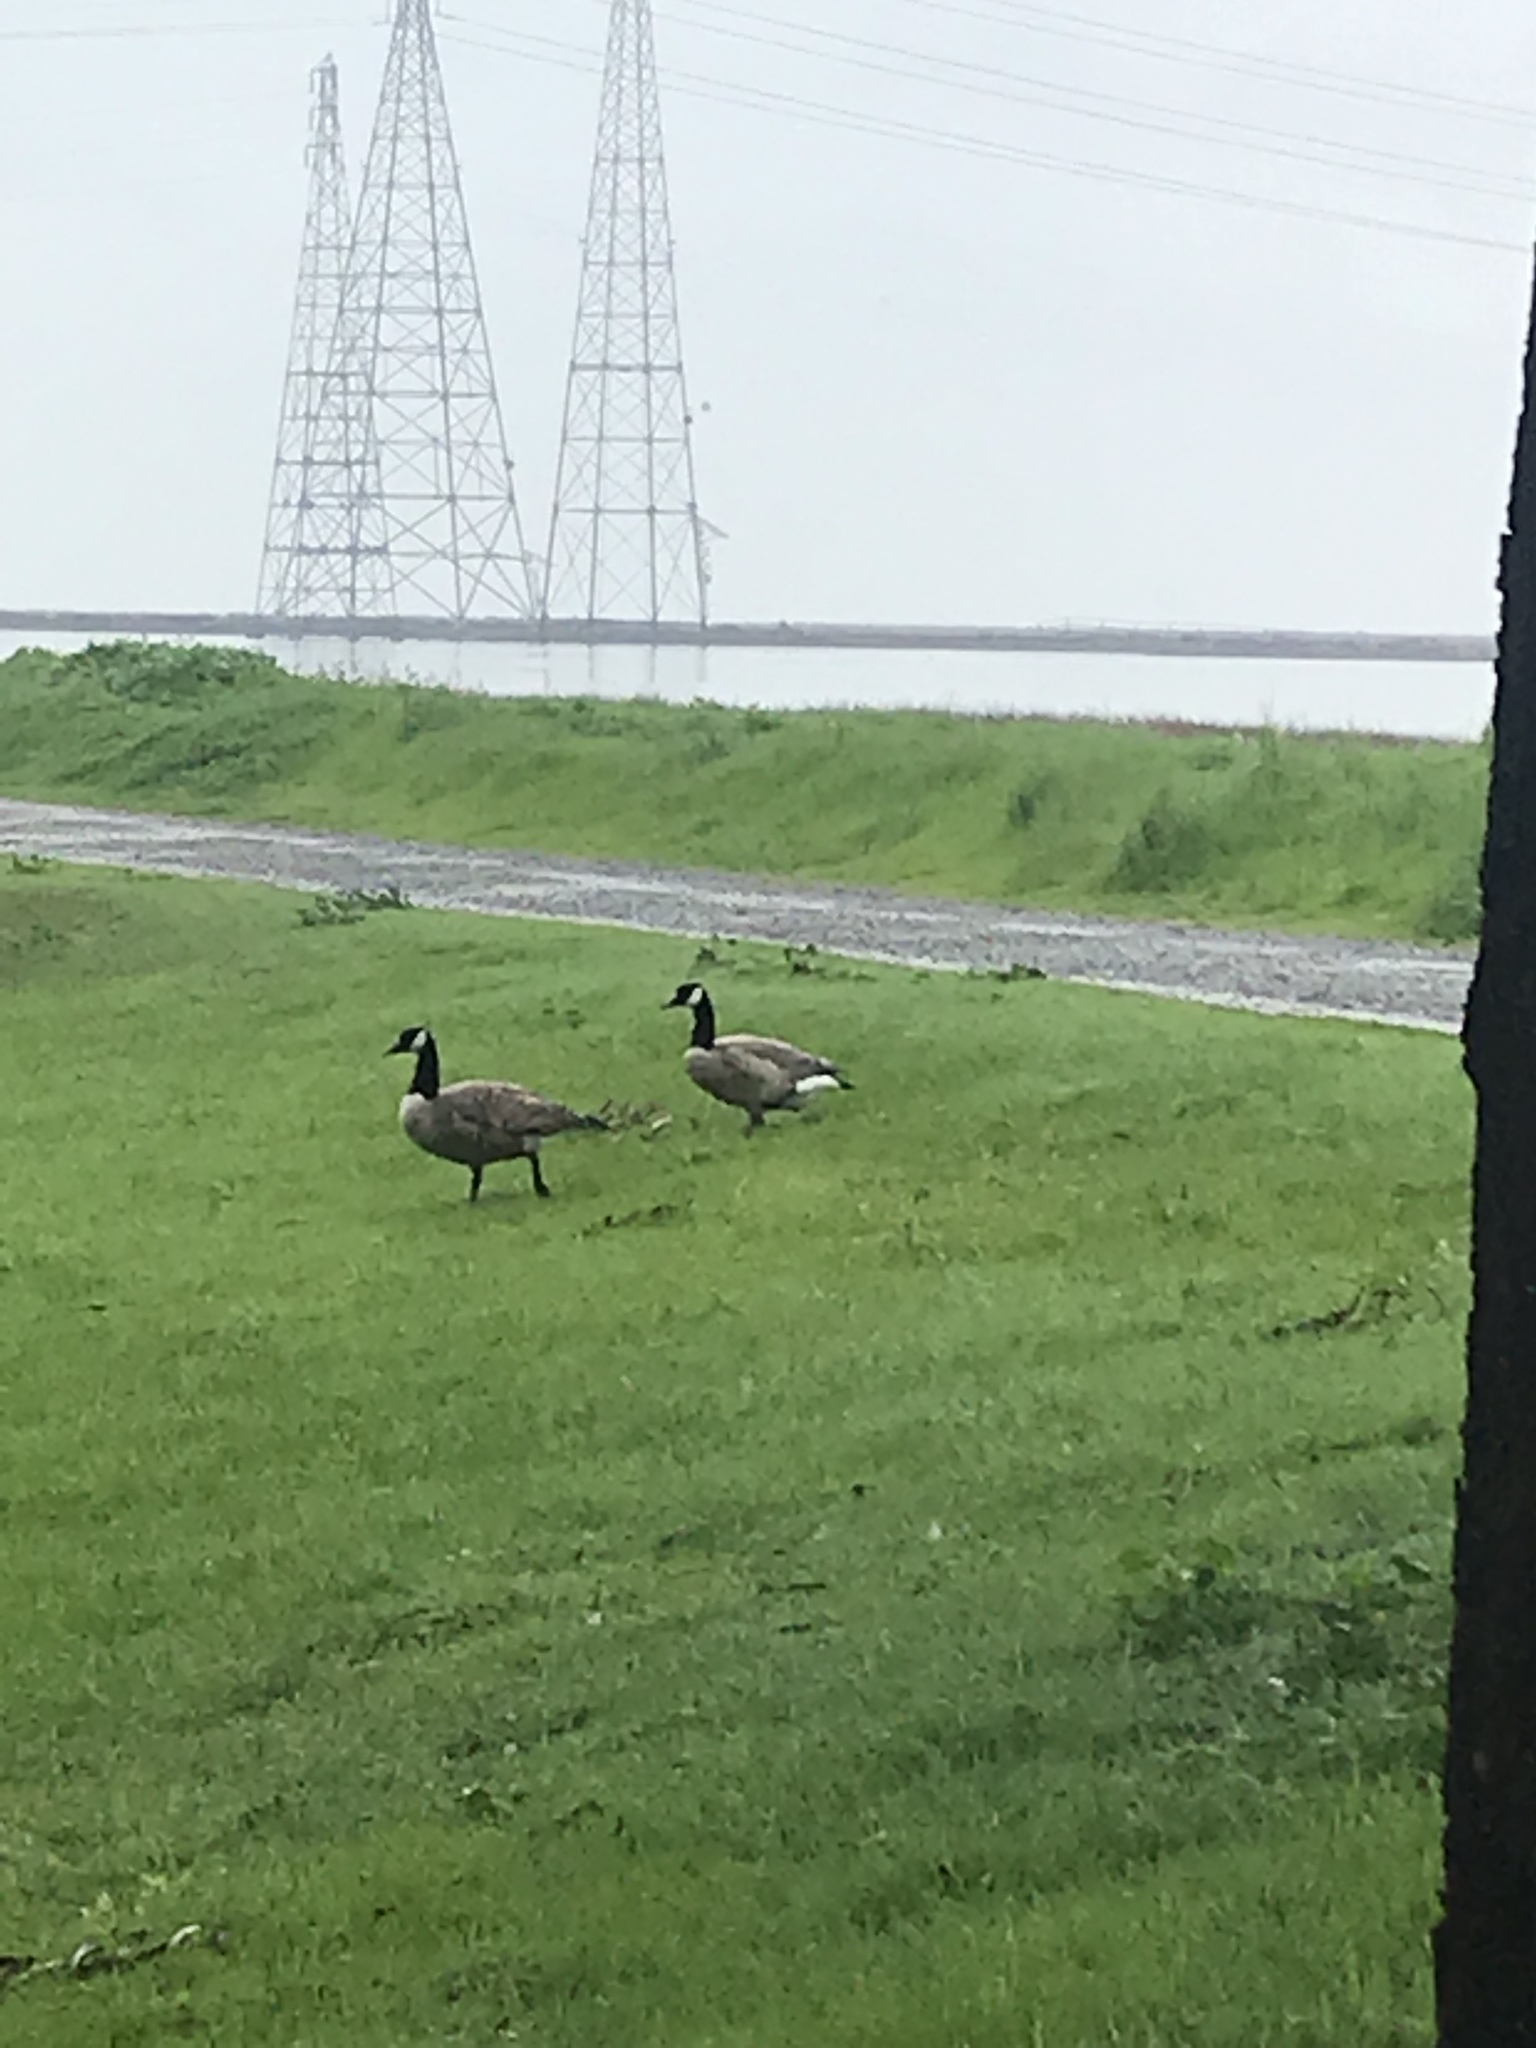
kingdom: Animalia
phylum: Chordata
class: Aves
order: Anseriformes
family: Anatidae
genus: Branta
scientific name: Branta canadensis
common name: Canada goose
